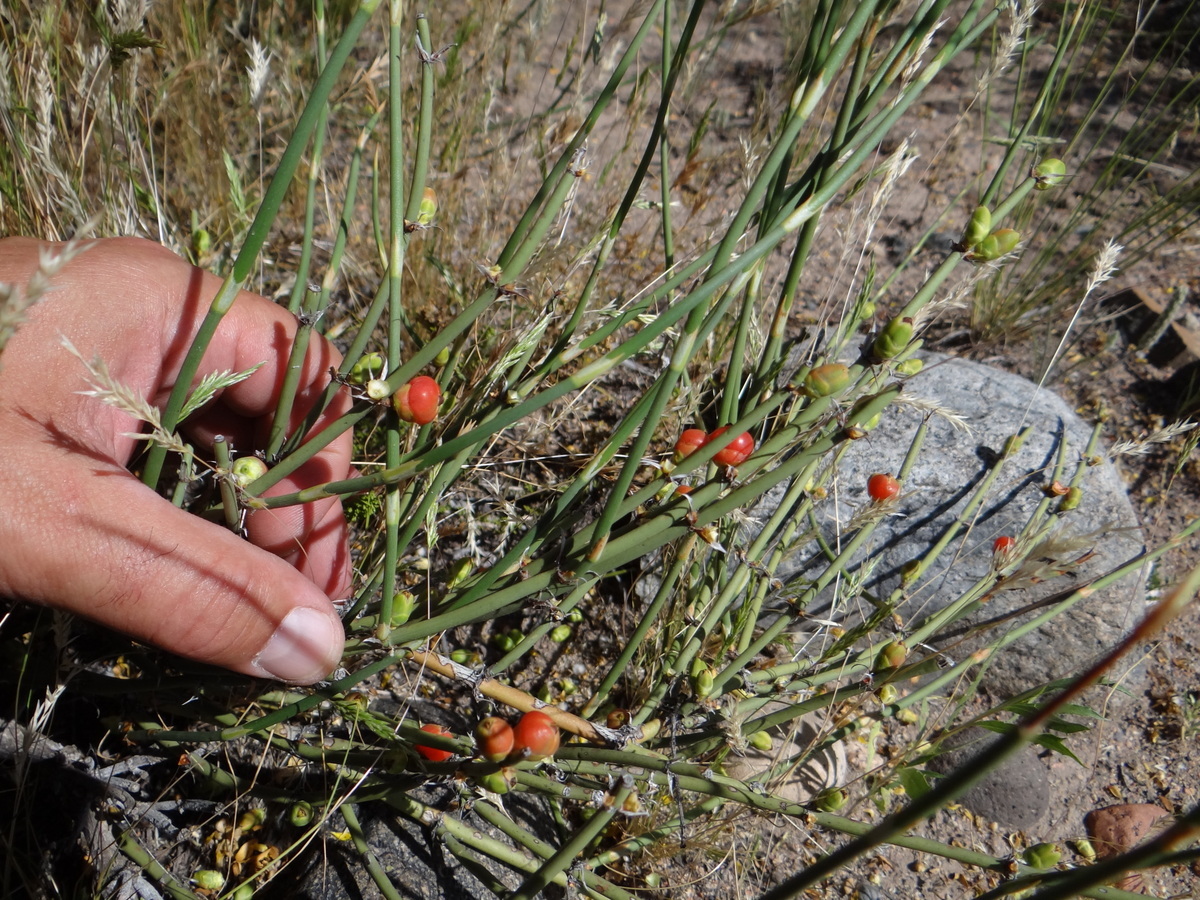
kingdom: Plantae
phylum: Tracheophyta
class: Gnetopsida
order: Ephedrales
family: Ephedraceae
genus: Ephedra
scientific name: Ephedra breana
